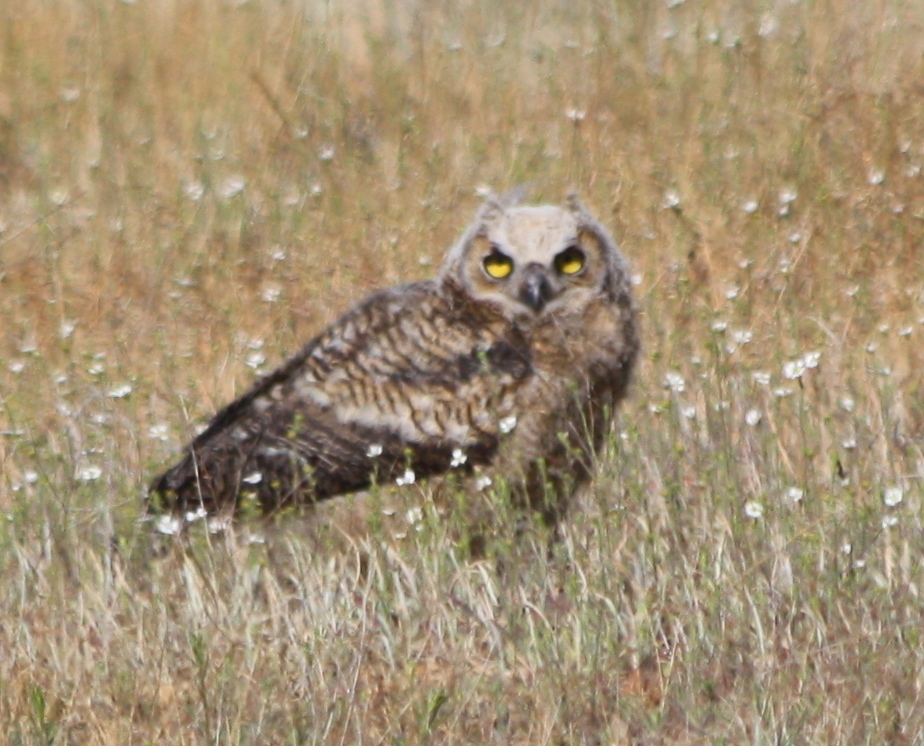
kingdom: Animalia
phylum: Chordata
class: Aves
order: Strigiformes
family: Strigidae
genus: Bubo
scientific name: Bubo virginianus
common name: Great horned owl
